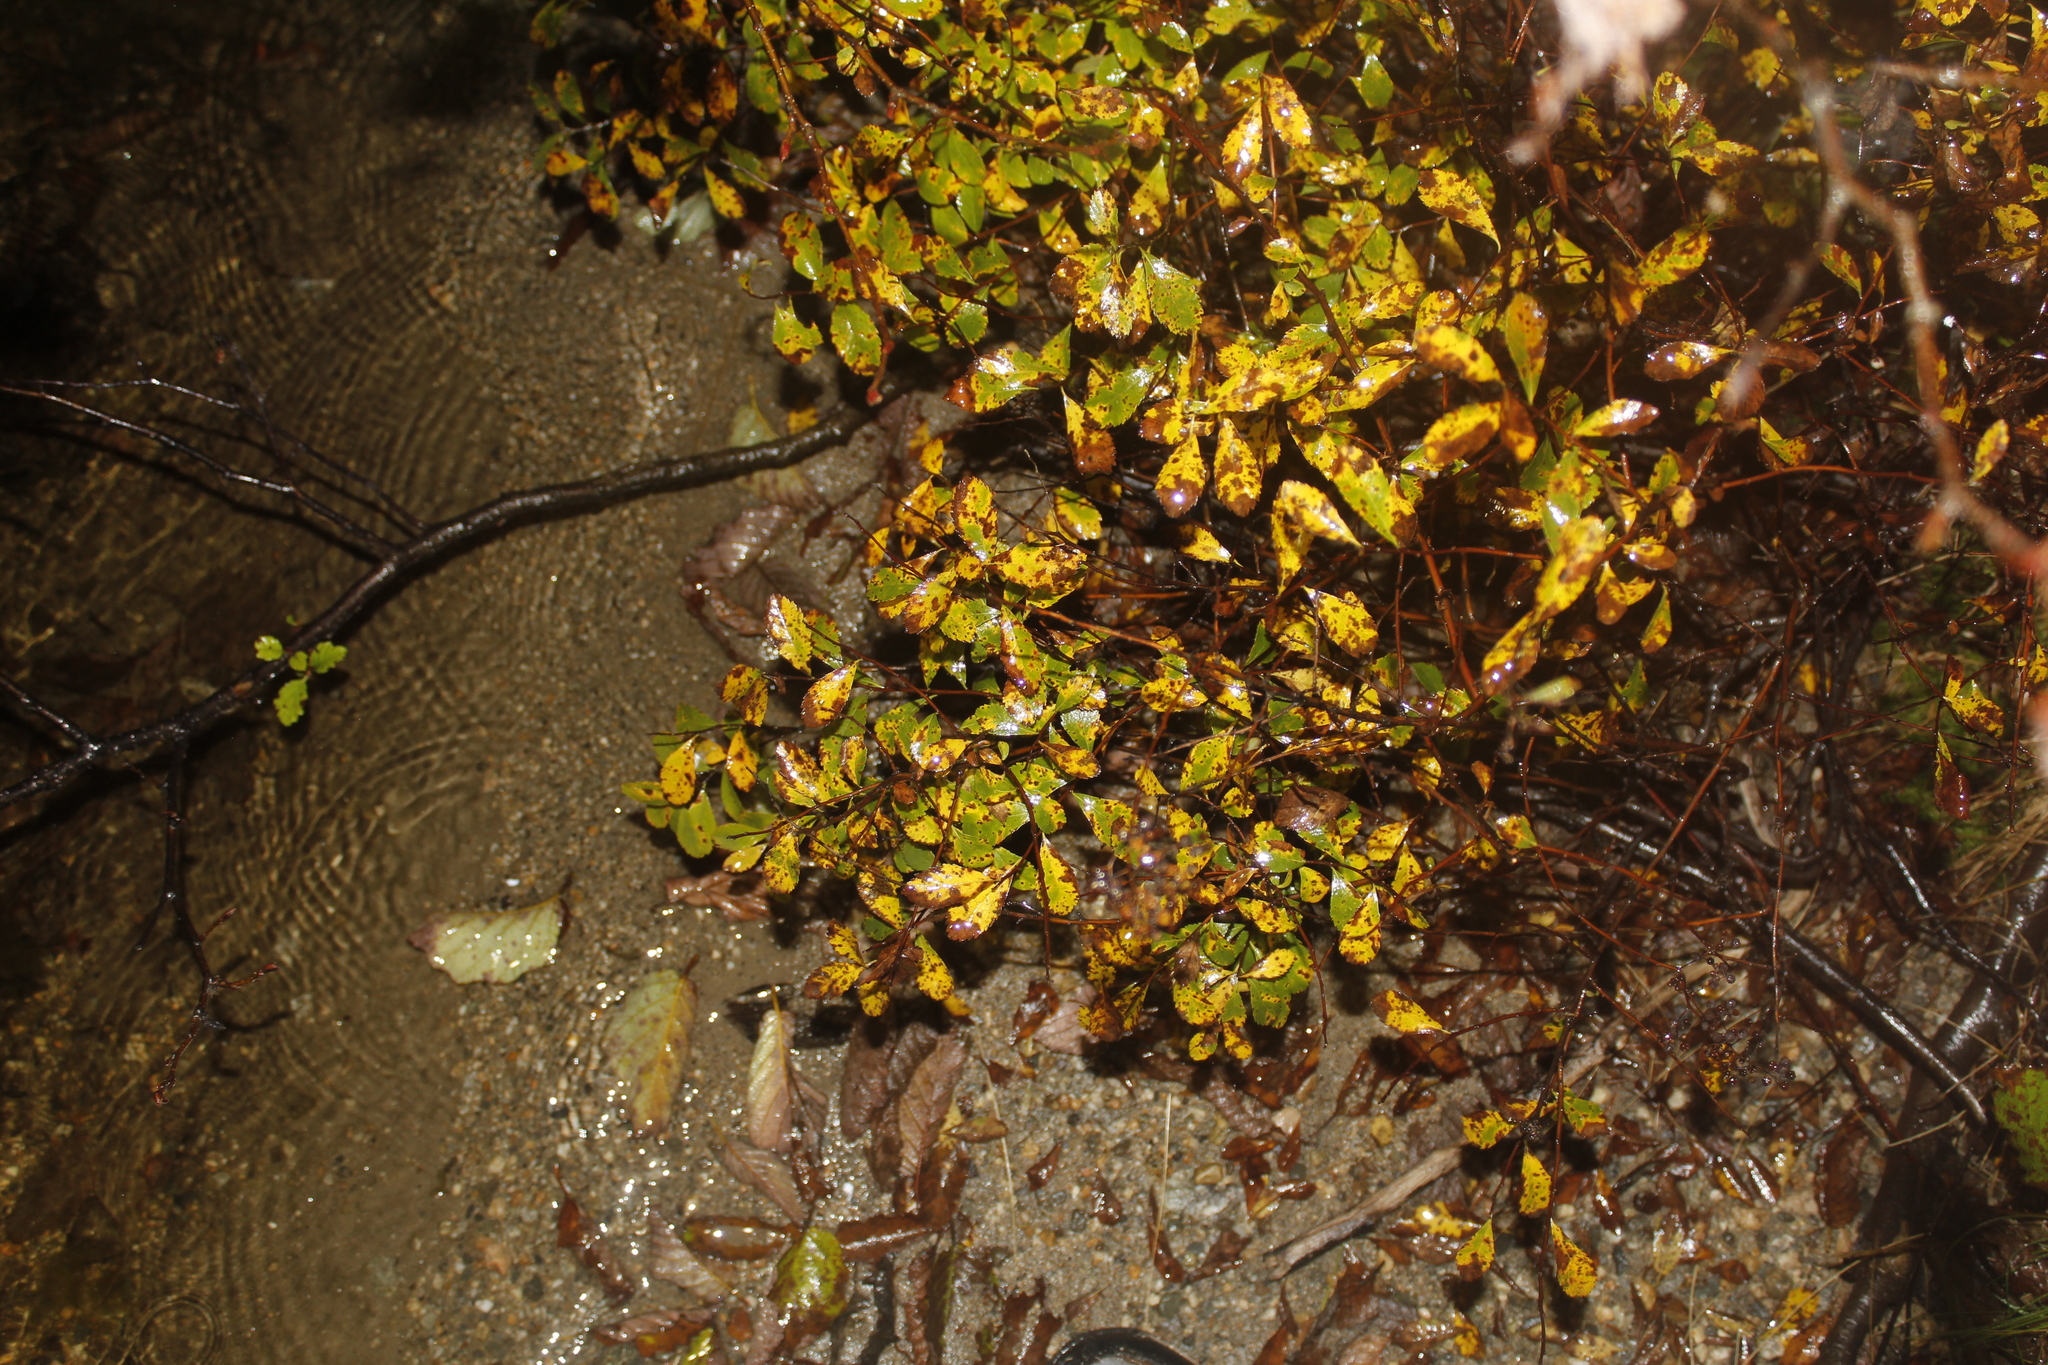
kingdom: Plantae
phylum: Tracheophyta
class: Magnoliopsida
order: Rosales
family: Rosaceae
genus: Spiraea
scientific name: Spiraea alba
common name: Pale bridewort
